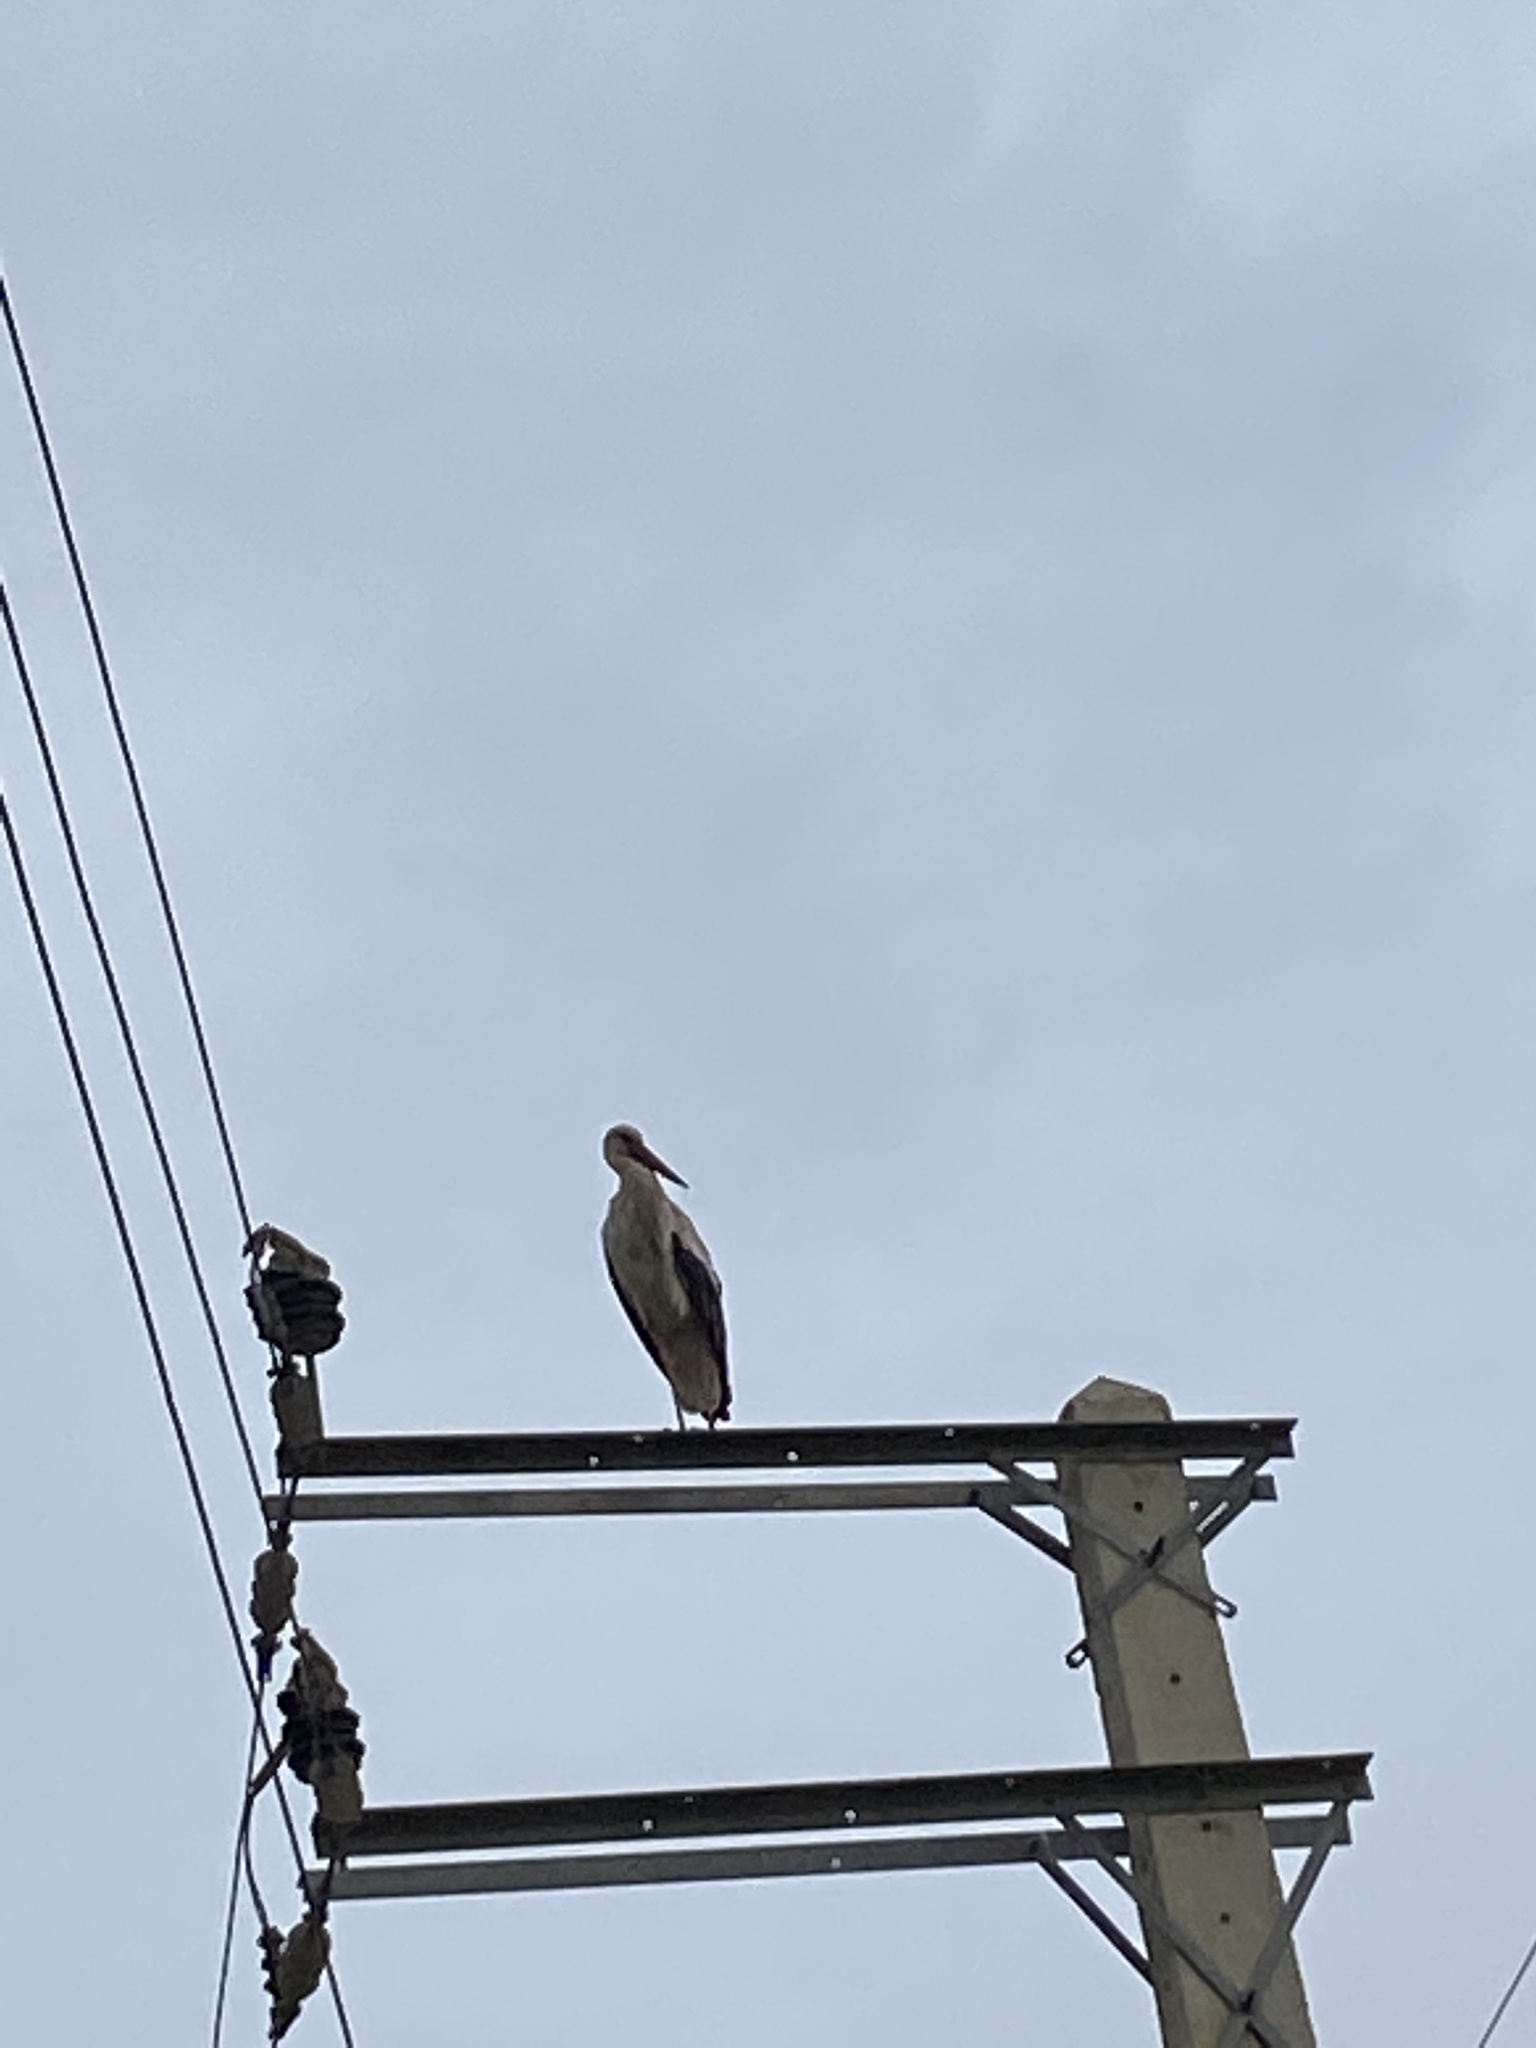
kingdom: Animalia
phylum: Chordata
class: Aves
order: Ciconiiformes
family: Ciconiidae
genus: Ciconia
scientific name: Ciconia ciconia
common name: White stork
